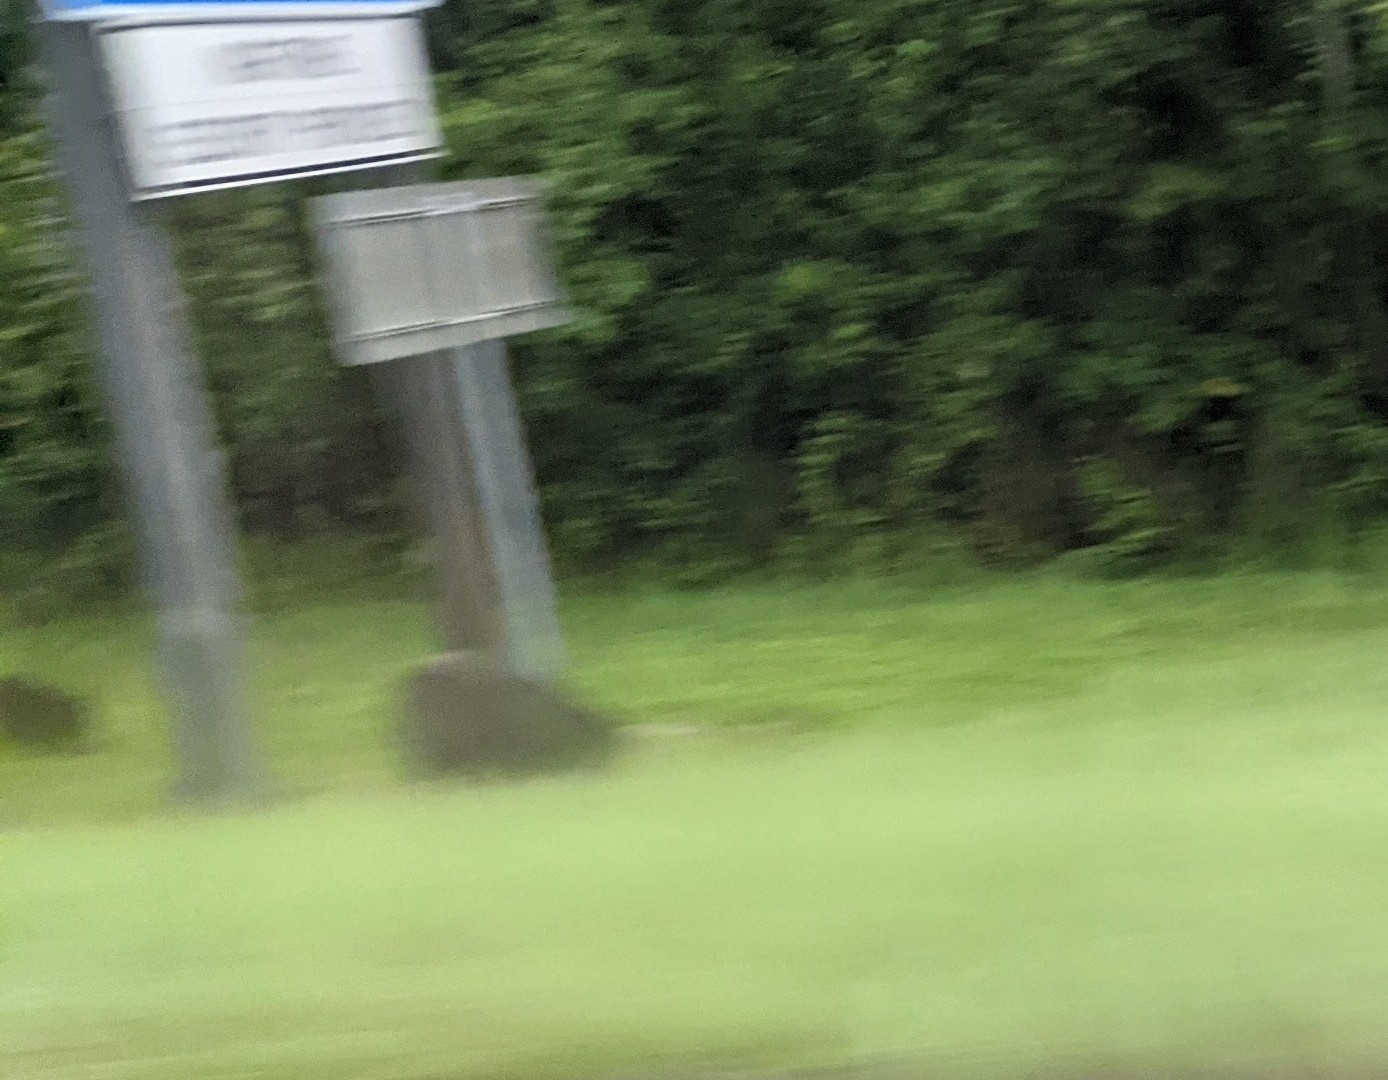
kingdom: Animalia
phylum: Chordata
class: Mammalia
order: Artiodactyla
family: Suidae
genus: Sus
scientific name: Sus scrofa
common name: Wild boar
